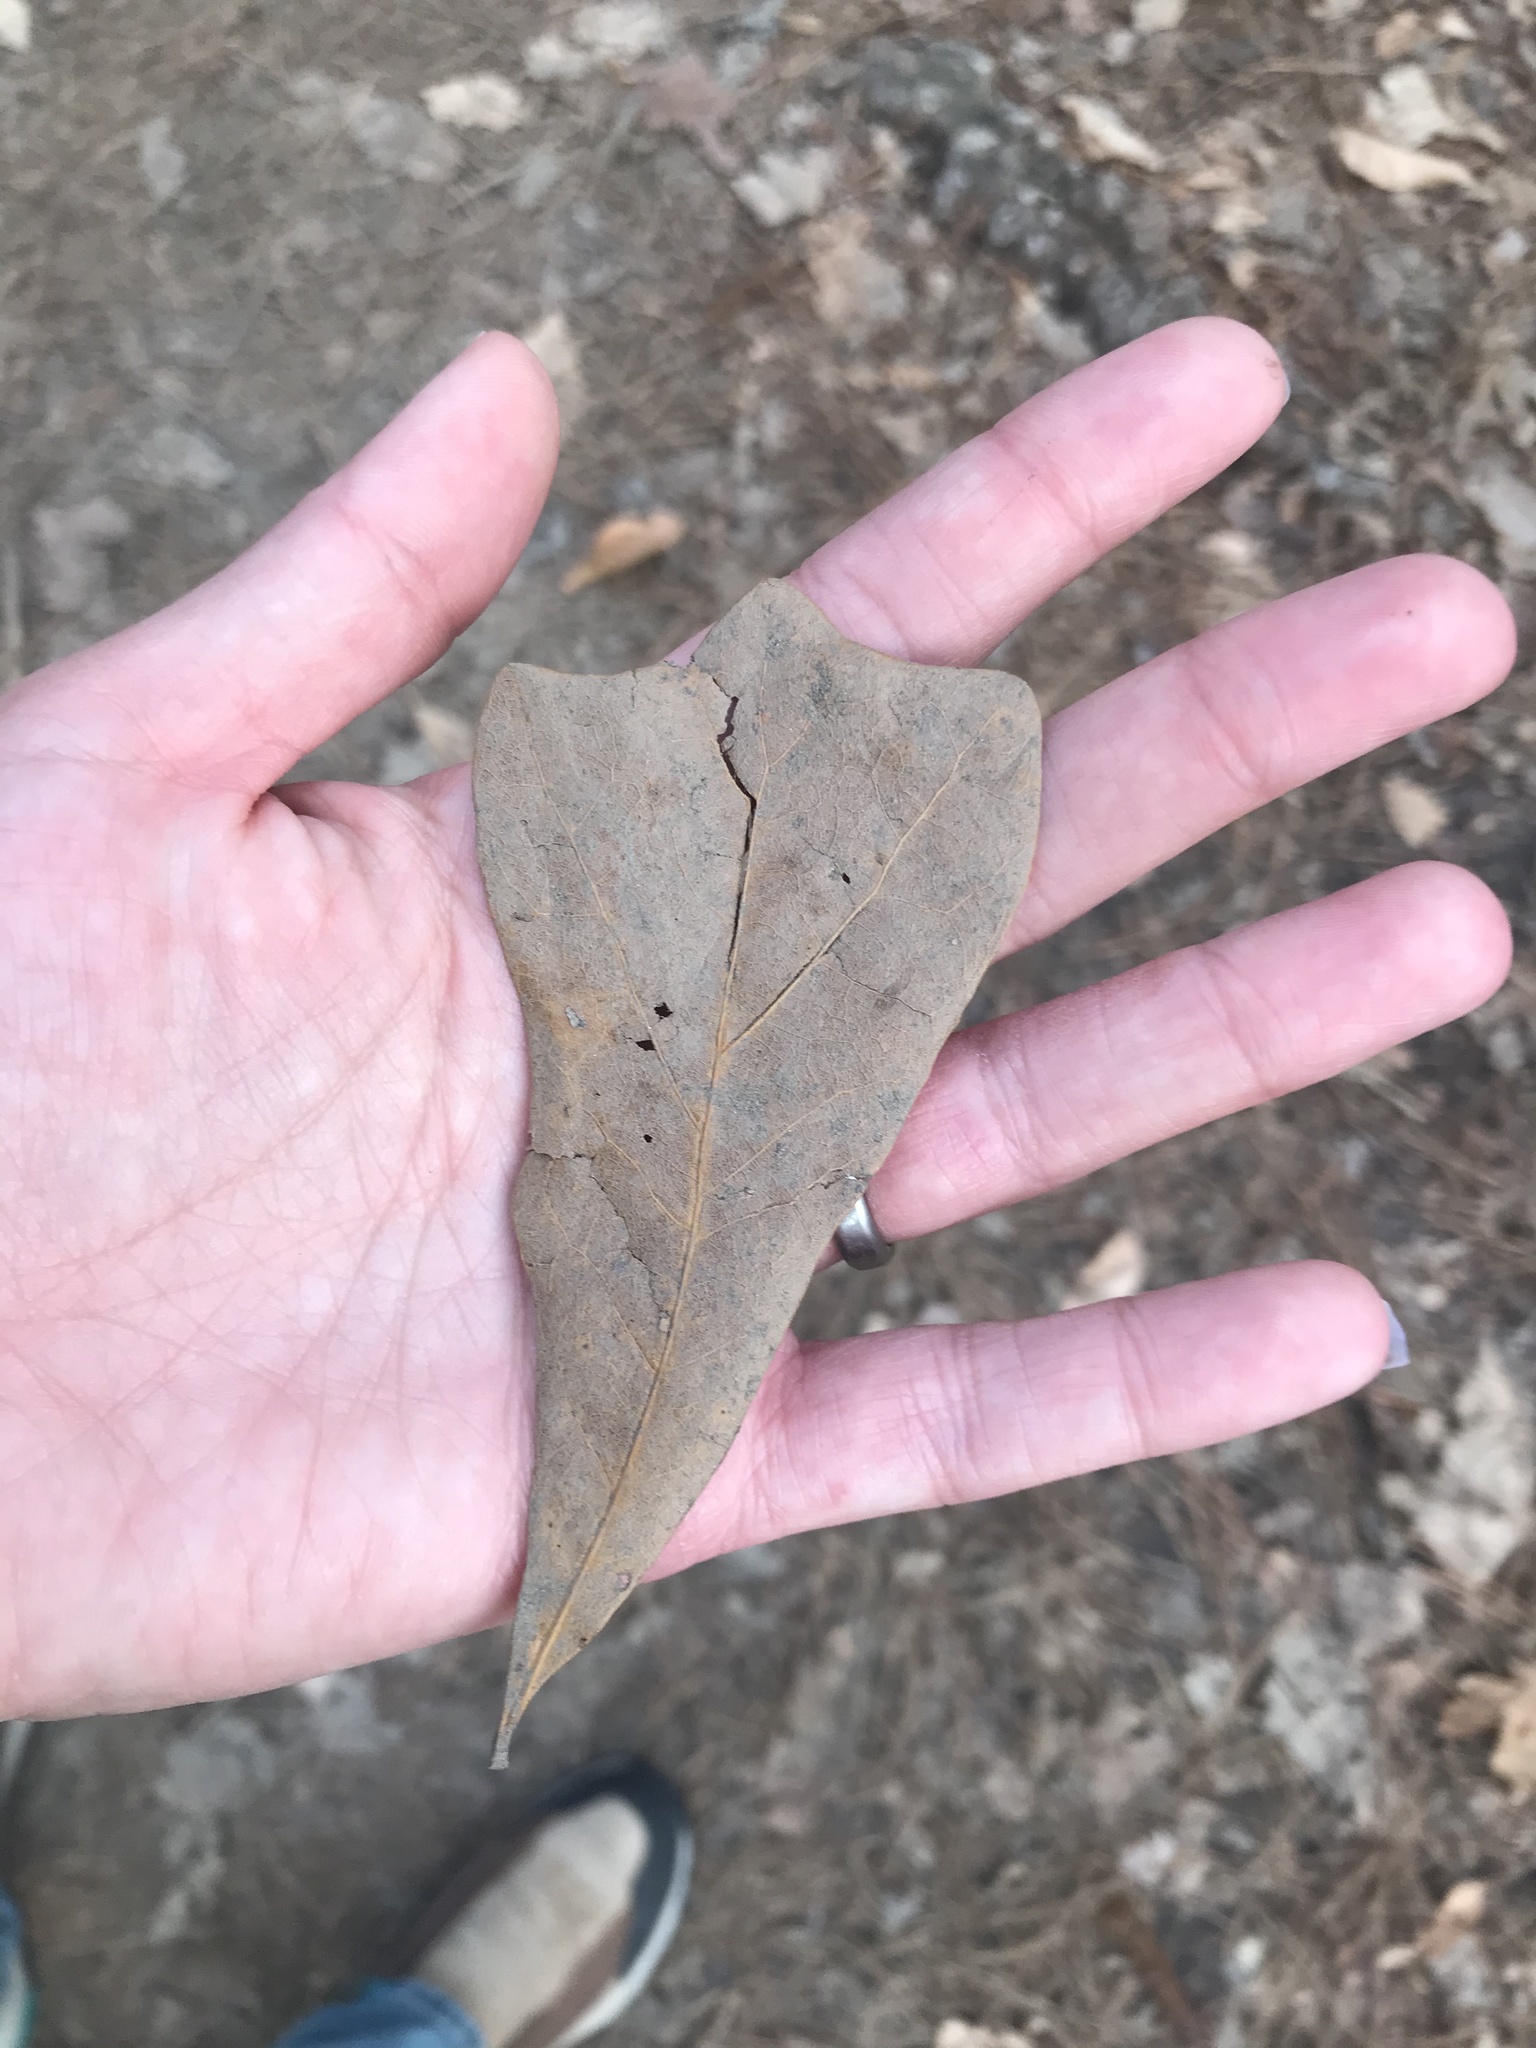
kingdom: Plantae
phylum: Tracheophyta
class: Magnoliopsida
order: Fagales
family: Fagaceae
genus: Quercus
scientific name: Quercus nigra
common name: Water oak
